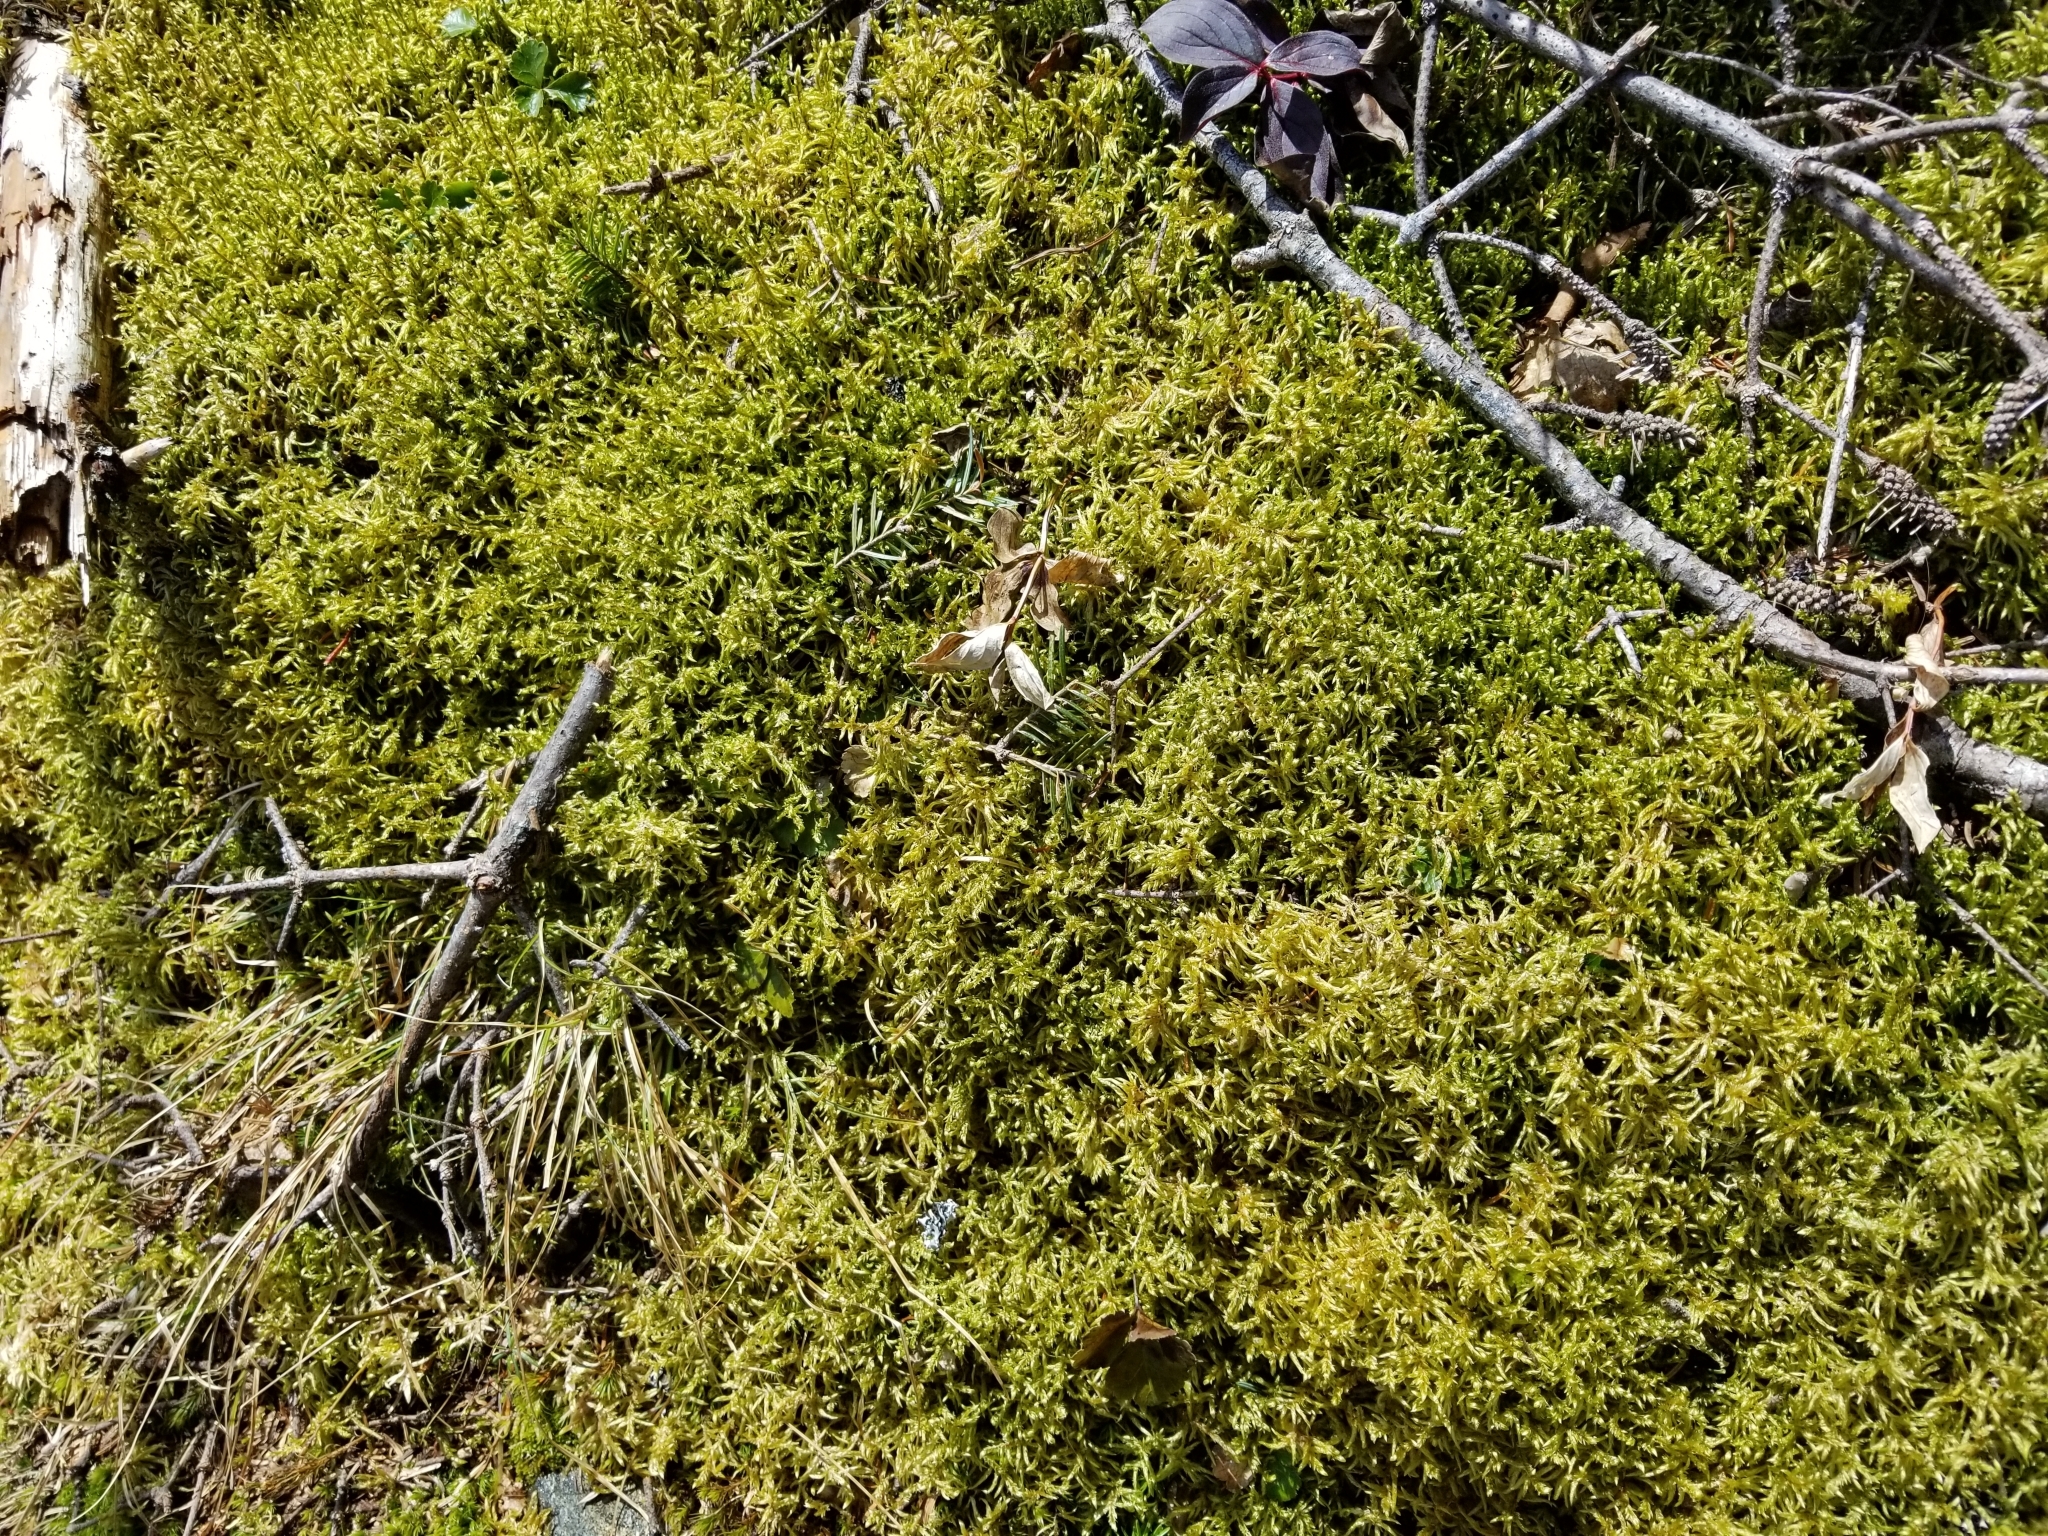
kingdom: Plantae
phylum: Bryophyta
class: Bryopsida
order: Hypnales
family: Hylocomiaceae
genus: Pleurozium
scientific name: Pleurozium schreberi
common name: Red-stemmed feather moss
